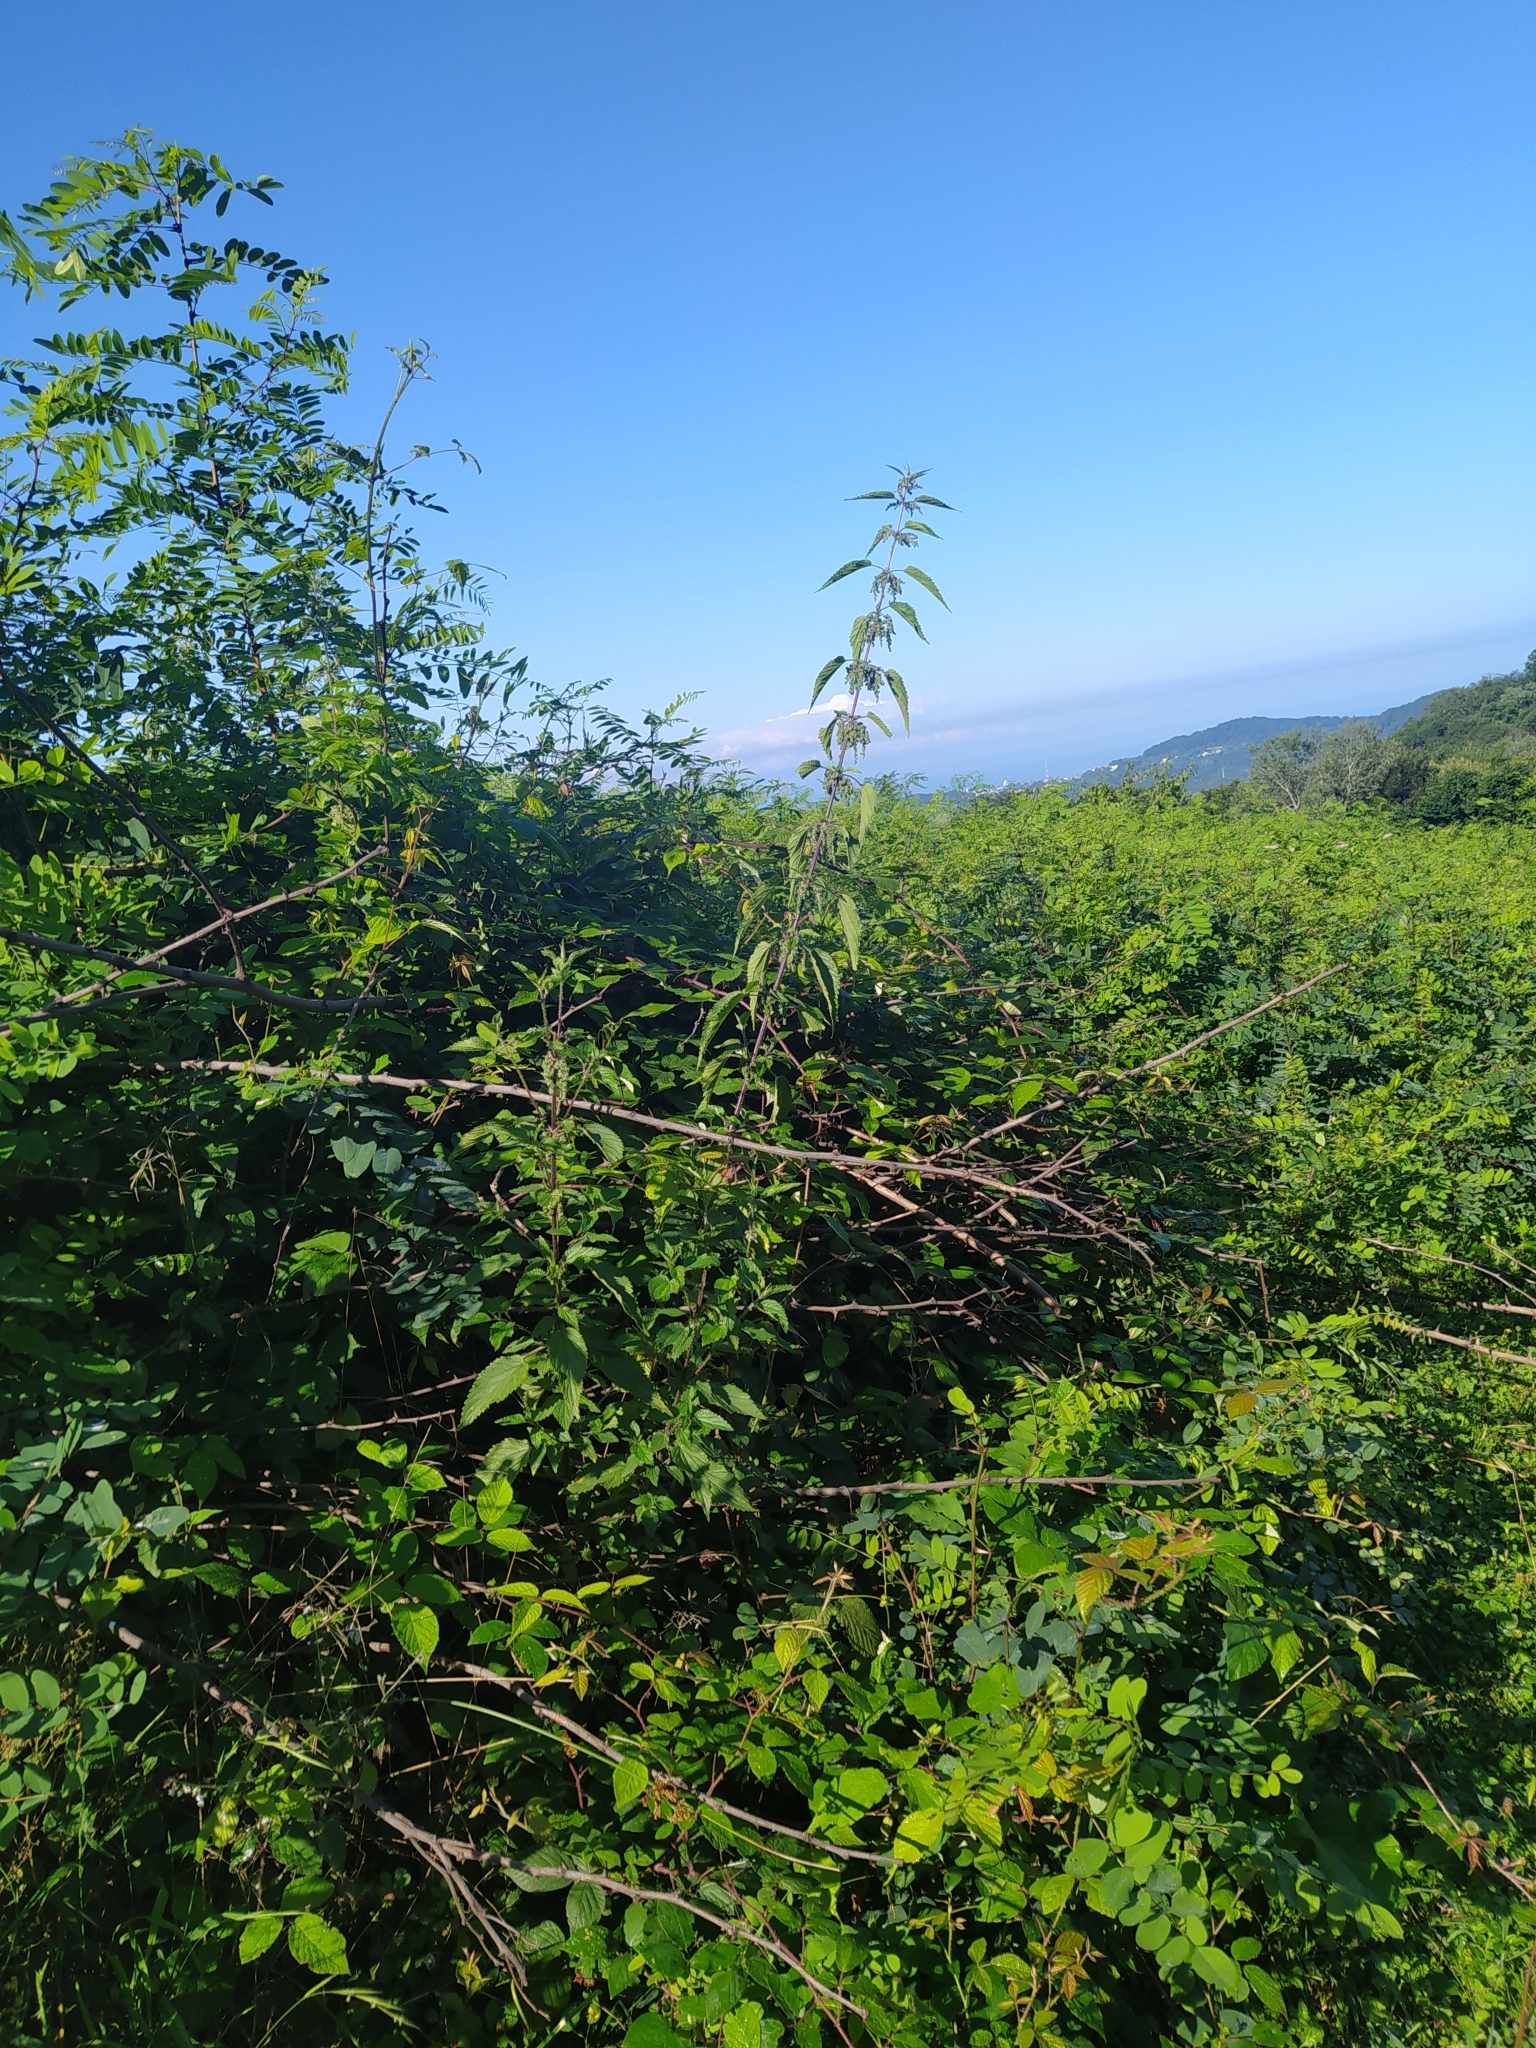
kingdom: Plantae
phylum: Tracheophyta
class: Magnoliopsida
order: Rosales
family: Urticaceae
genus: Urtica
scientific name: Urtica dioica
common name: Common nettle
